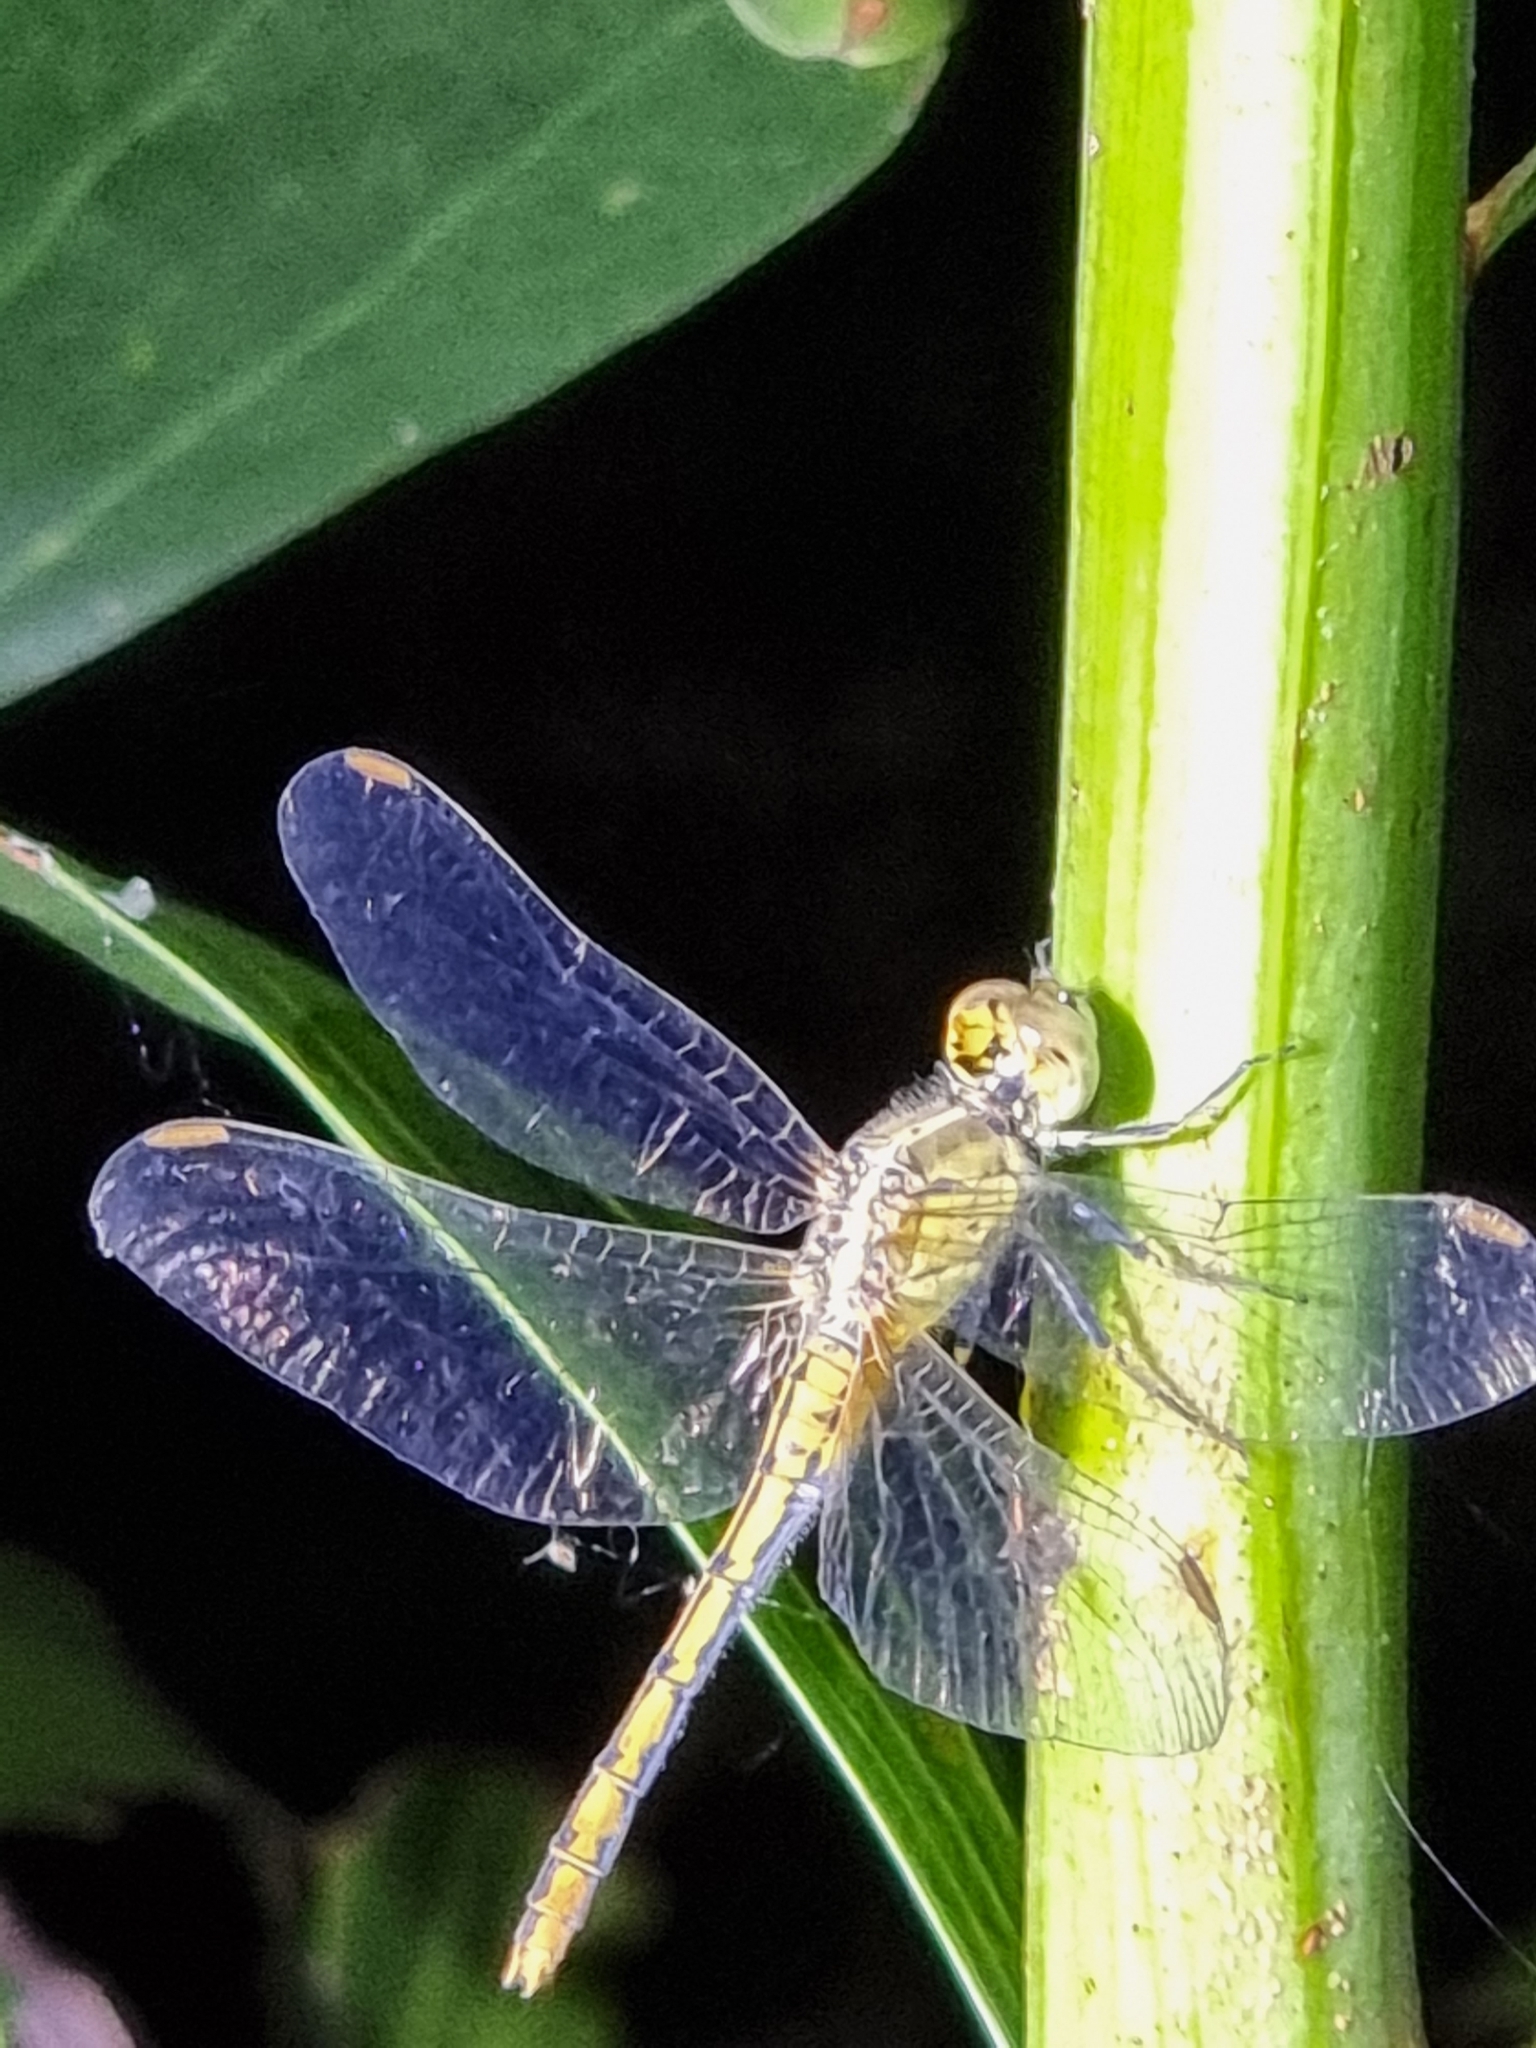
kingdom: Animalia
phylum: Arthropoda
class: Insecta
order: Odonata
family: Libellulidae
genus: Diplacodes
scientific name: Diplacodes bipunctata
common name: Red percher dragonfly
